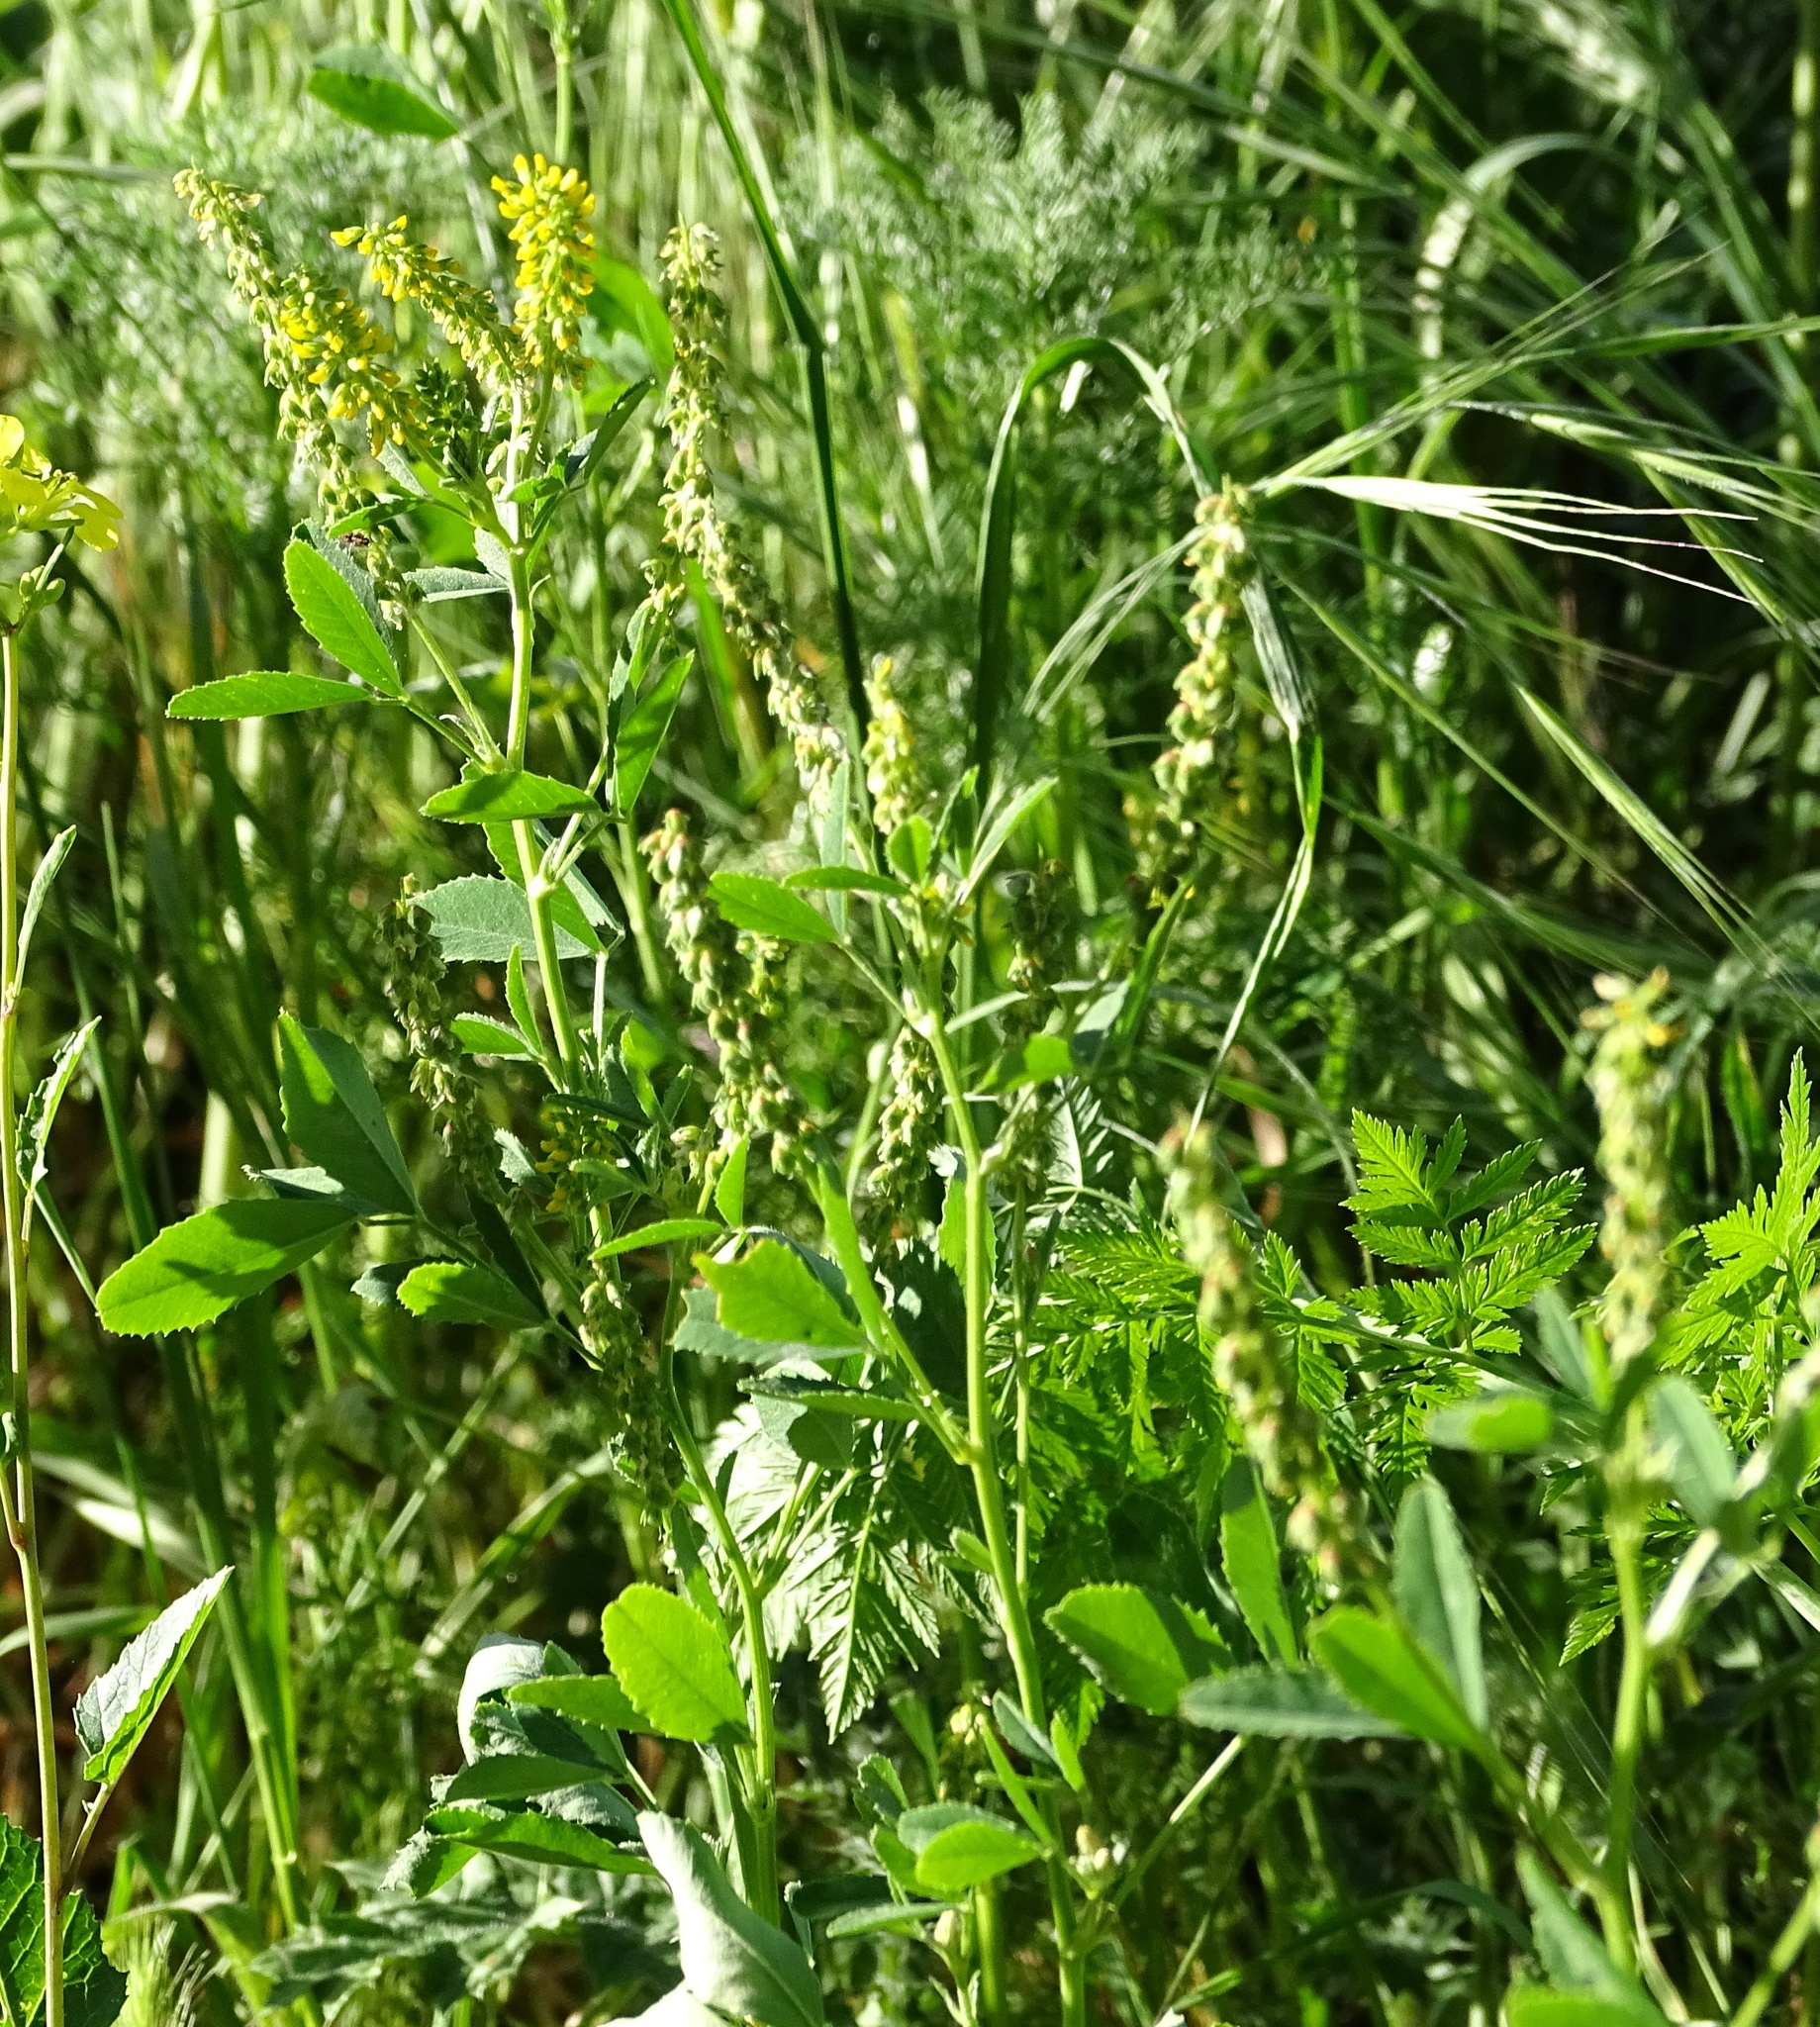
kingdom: Plantae
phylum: Tracheophyta
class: Magnoliopsida
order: Fabales
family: Fabaceae
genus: Melilotus
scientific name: Melilotus indicus
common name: Small melilot
